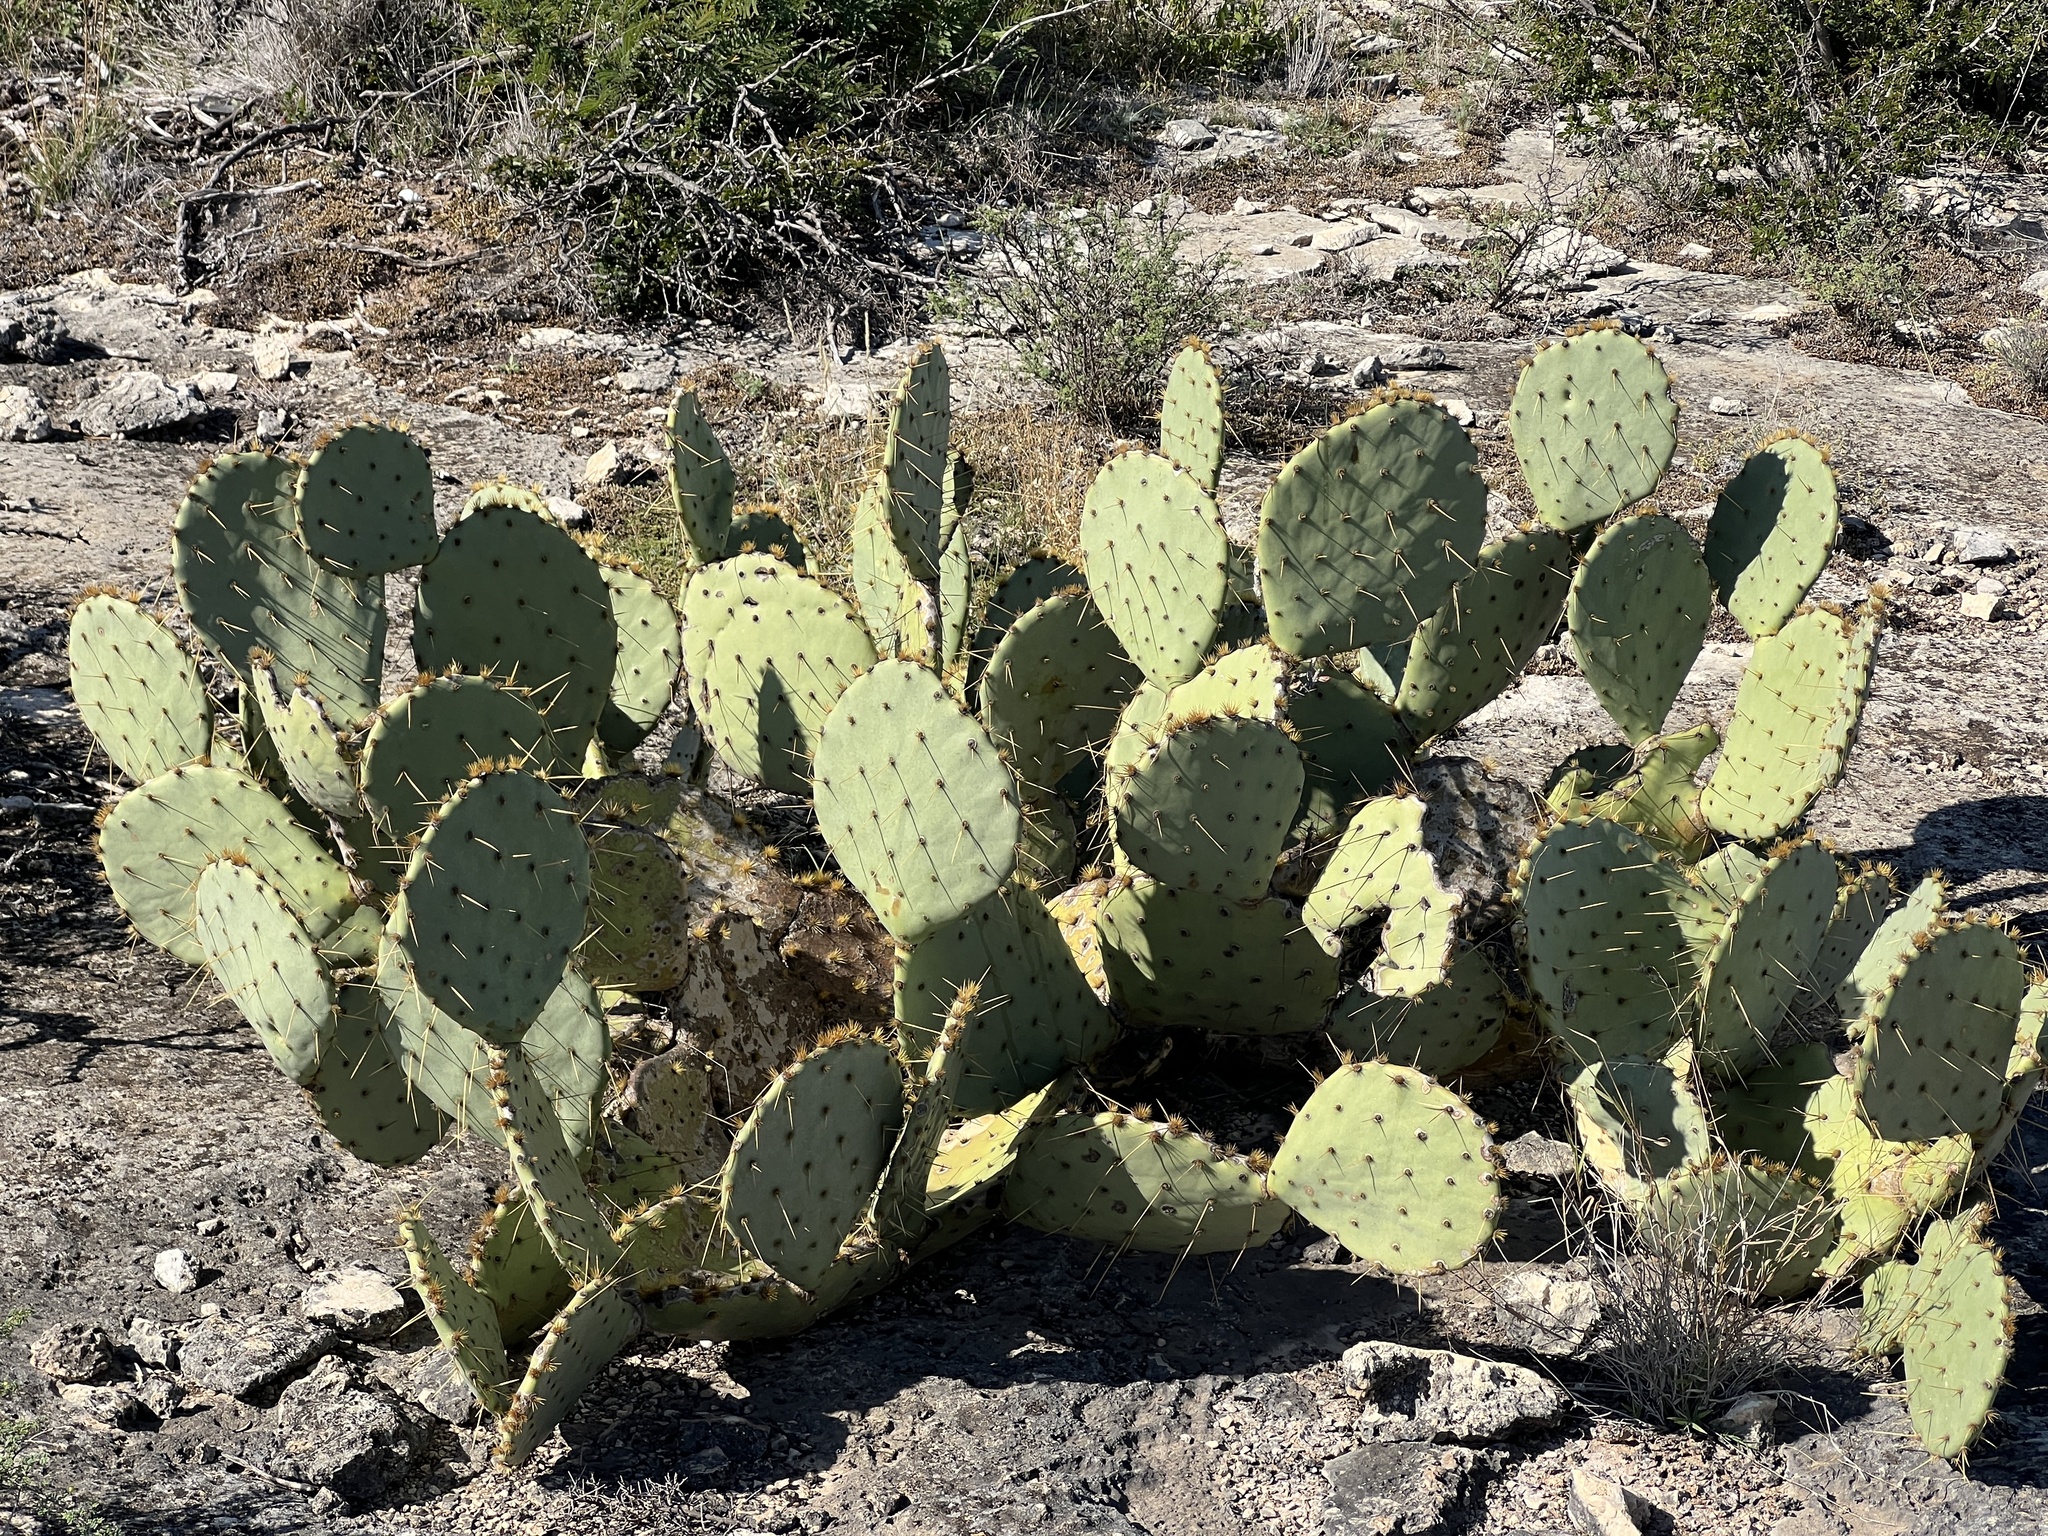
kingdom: Plantae
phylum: Tracheophyta
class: Magnoliopsida
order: Caryophyllales
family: Cactaceae
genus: Opuntia
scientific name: Opuntia engelmannii
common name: Cactus-apple
